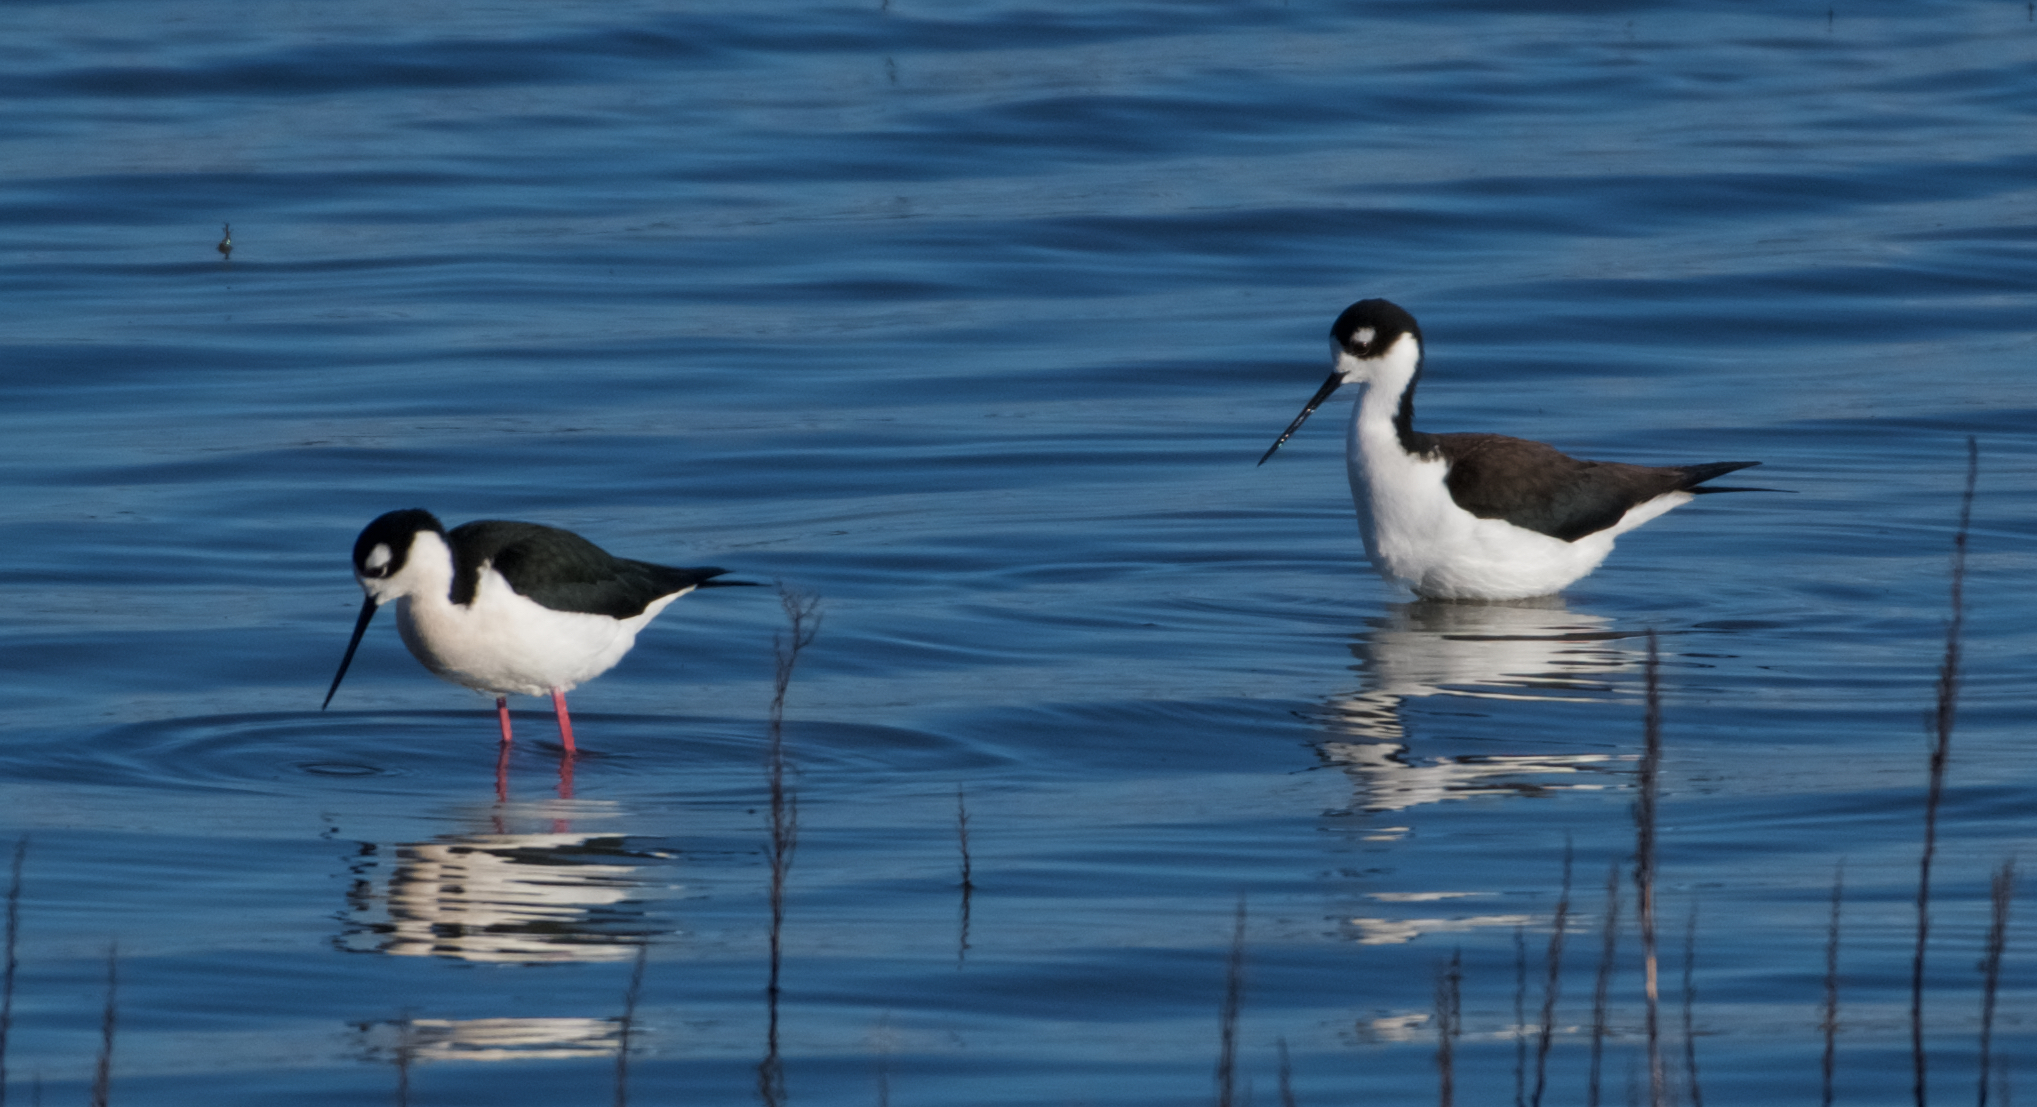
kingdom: Animalia
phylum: Chordata
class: Aves
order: Charadriiformes
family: Recurvirostridae
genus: Himantopus
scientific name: Himantopus mexicanus
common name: Black-necked stilt
